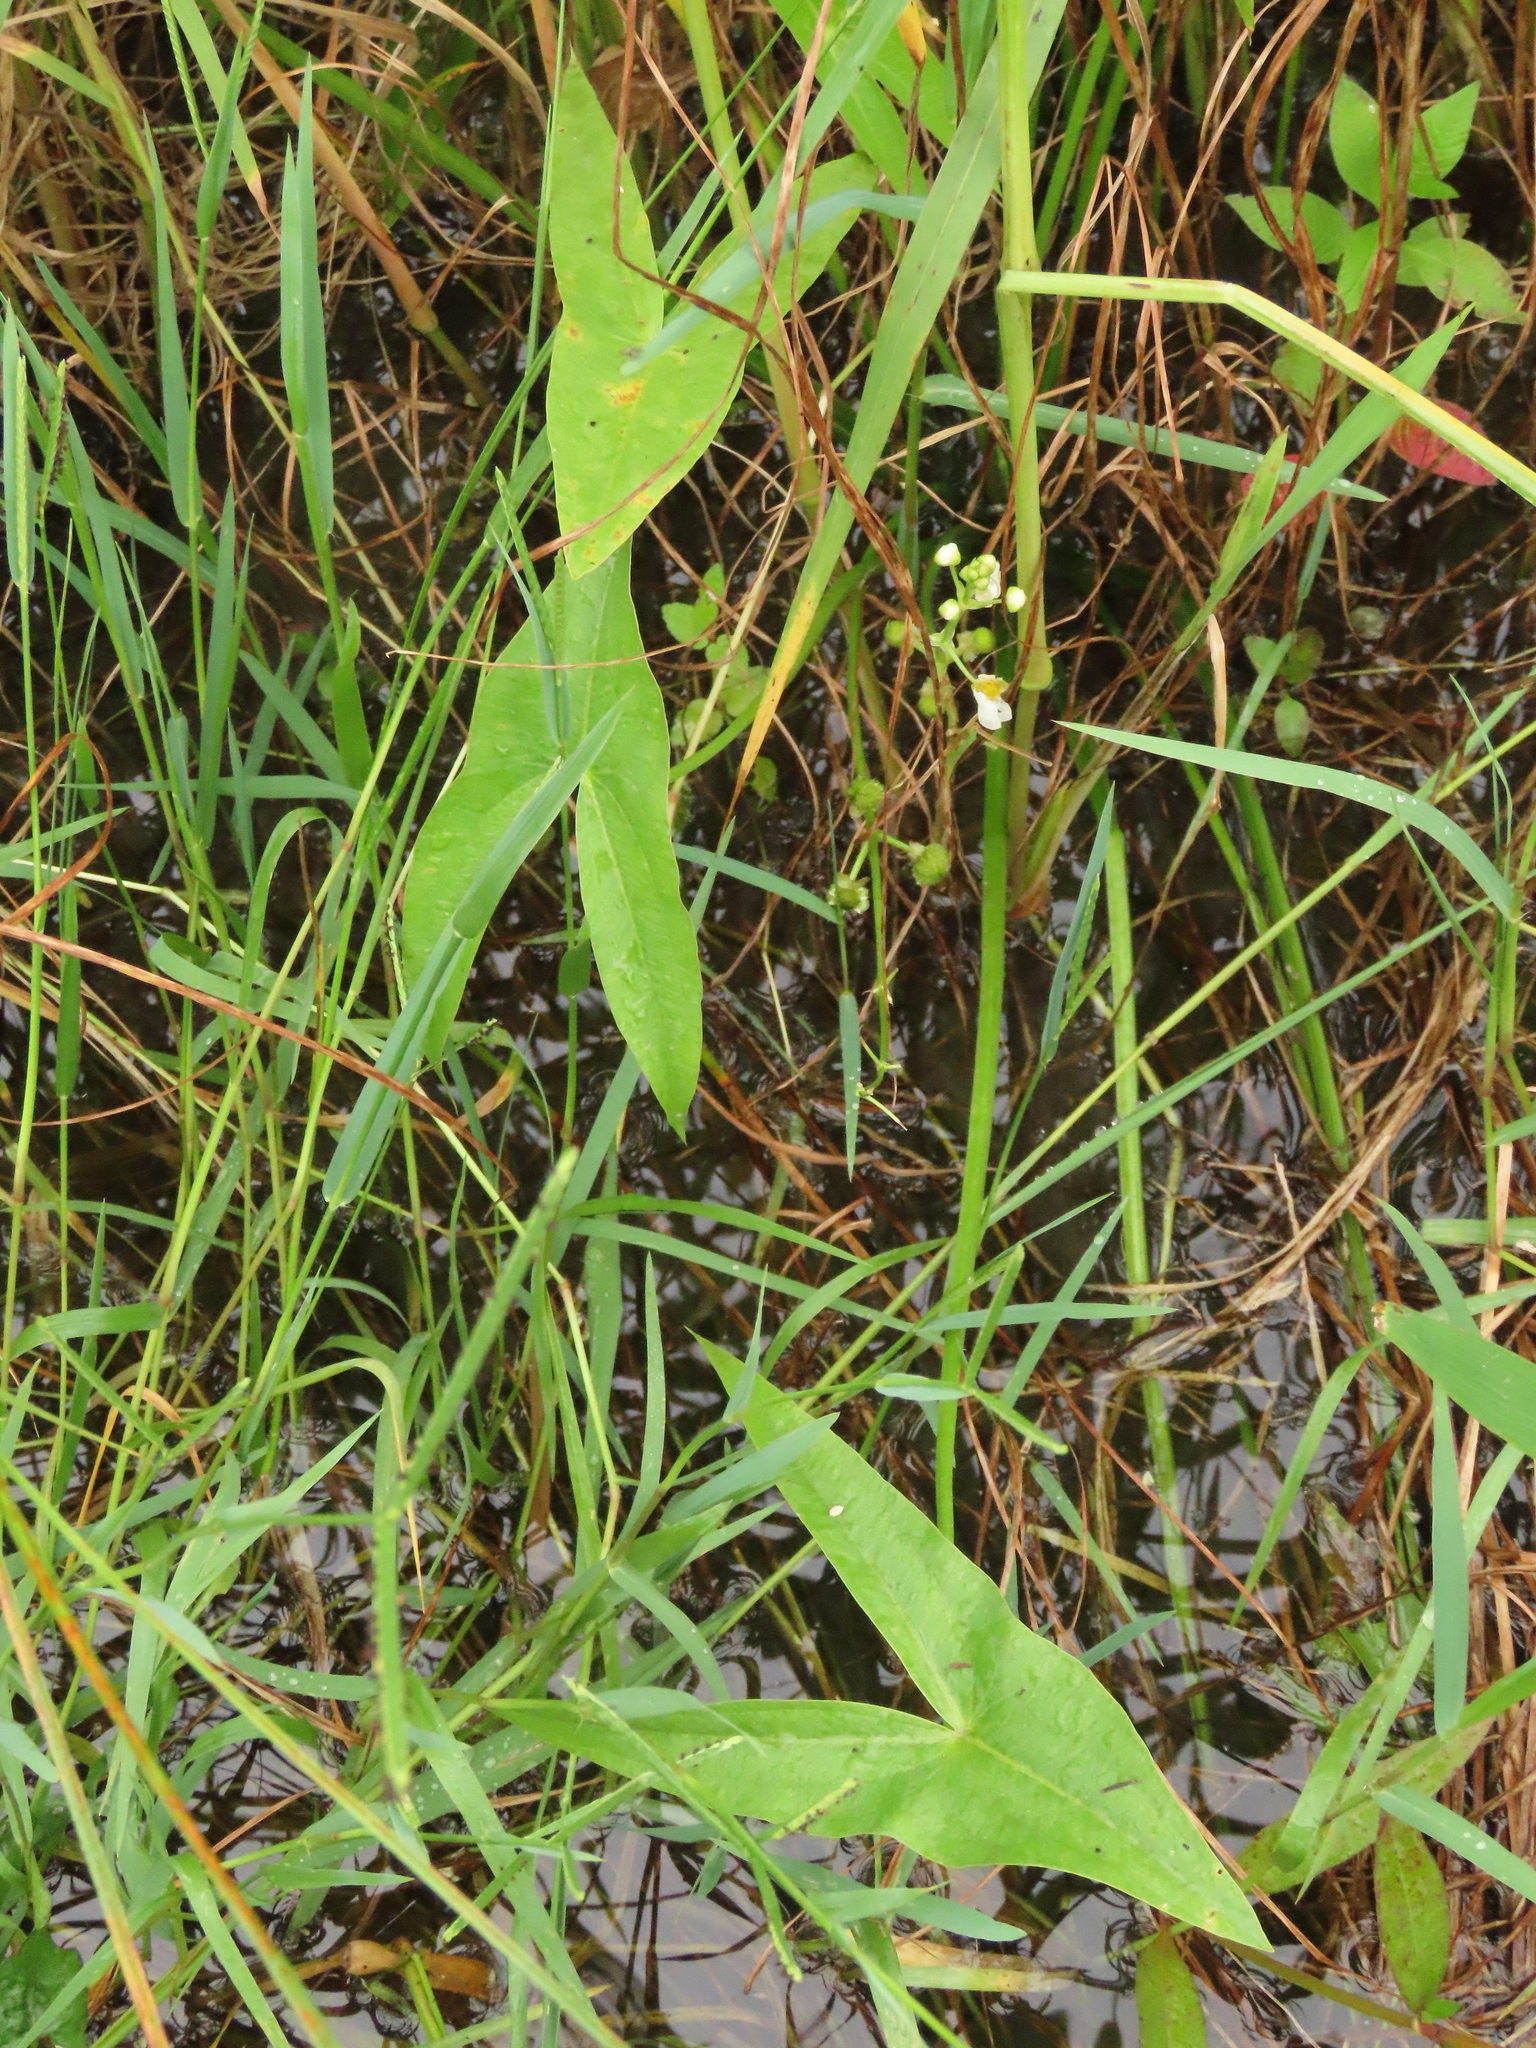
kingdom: Plantae
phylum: Tracheophyta
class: Liliopsida
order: Alismatales
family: Alismataceae
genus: Sagittaria
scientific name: Sagittaria trifolia
